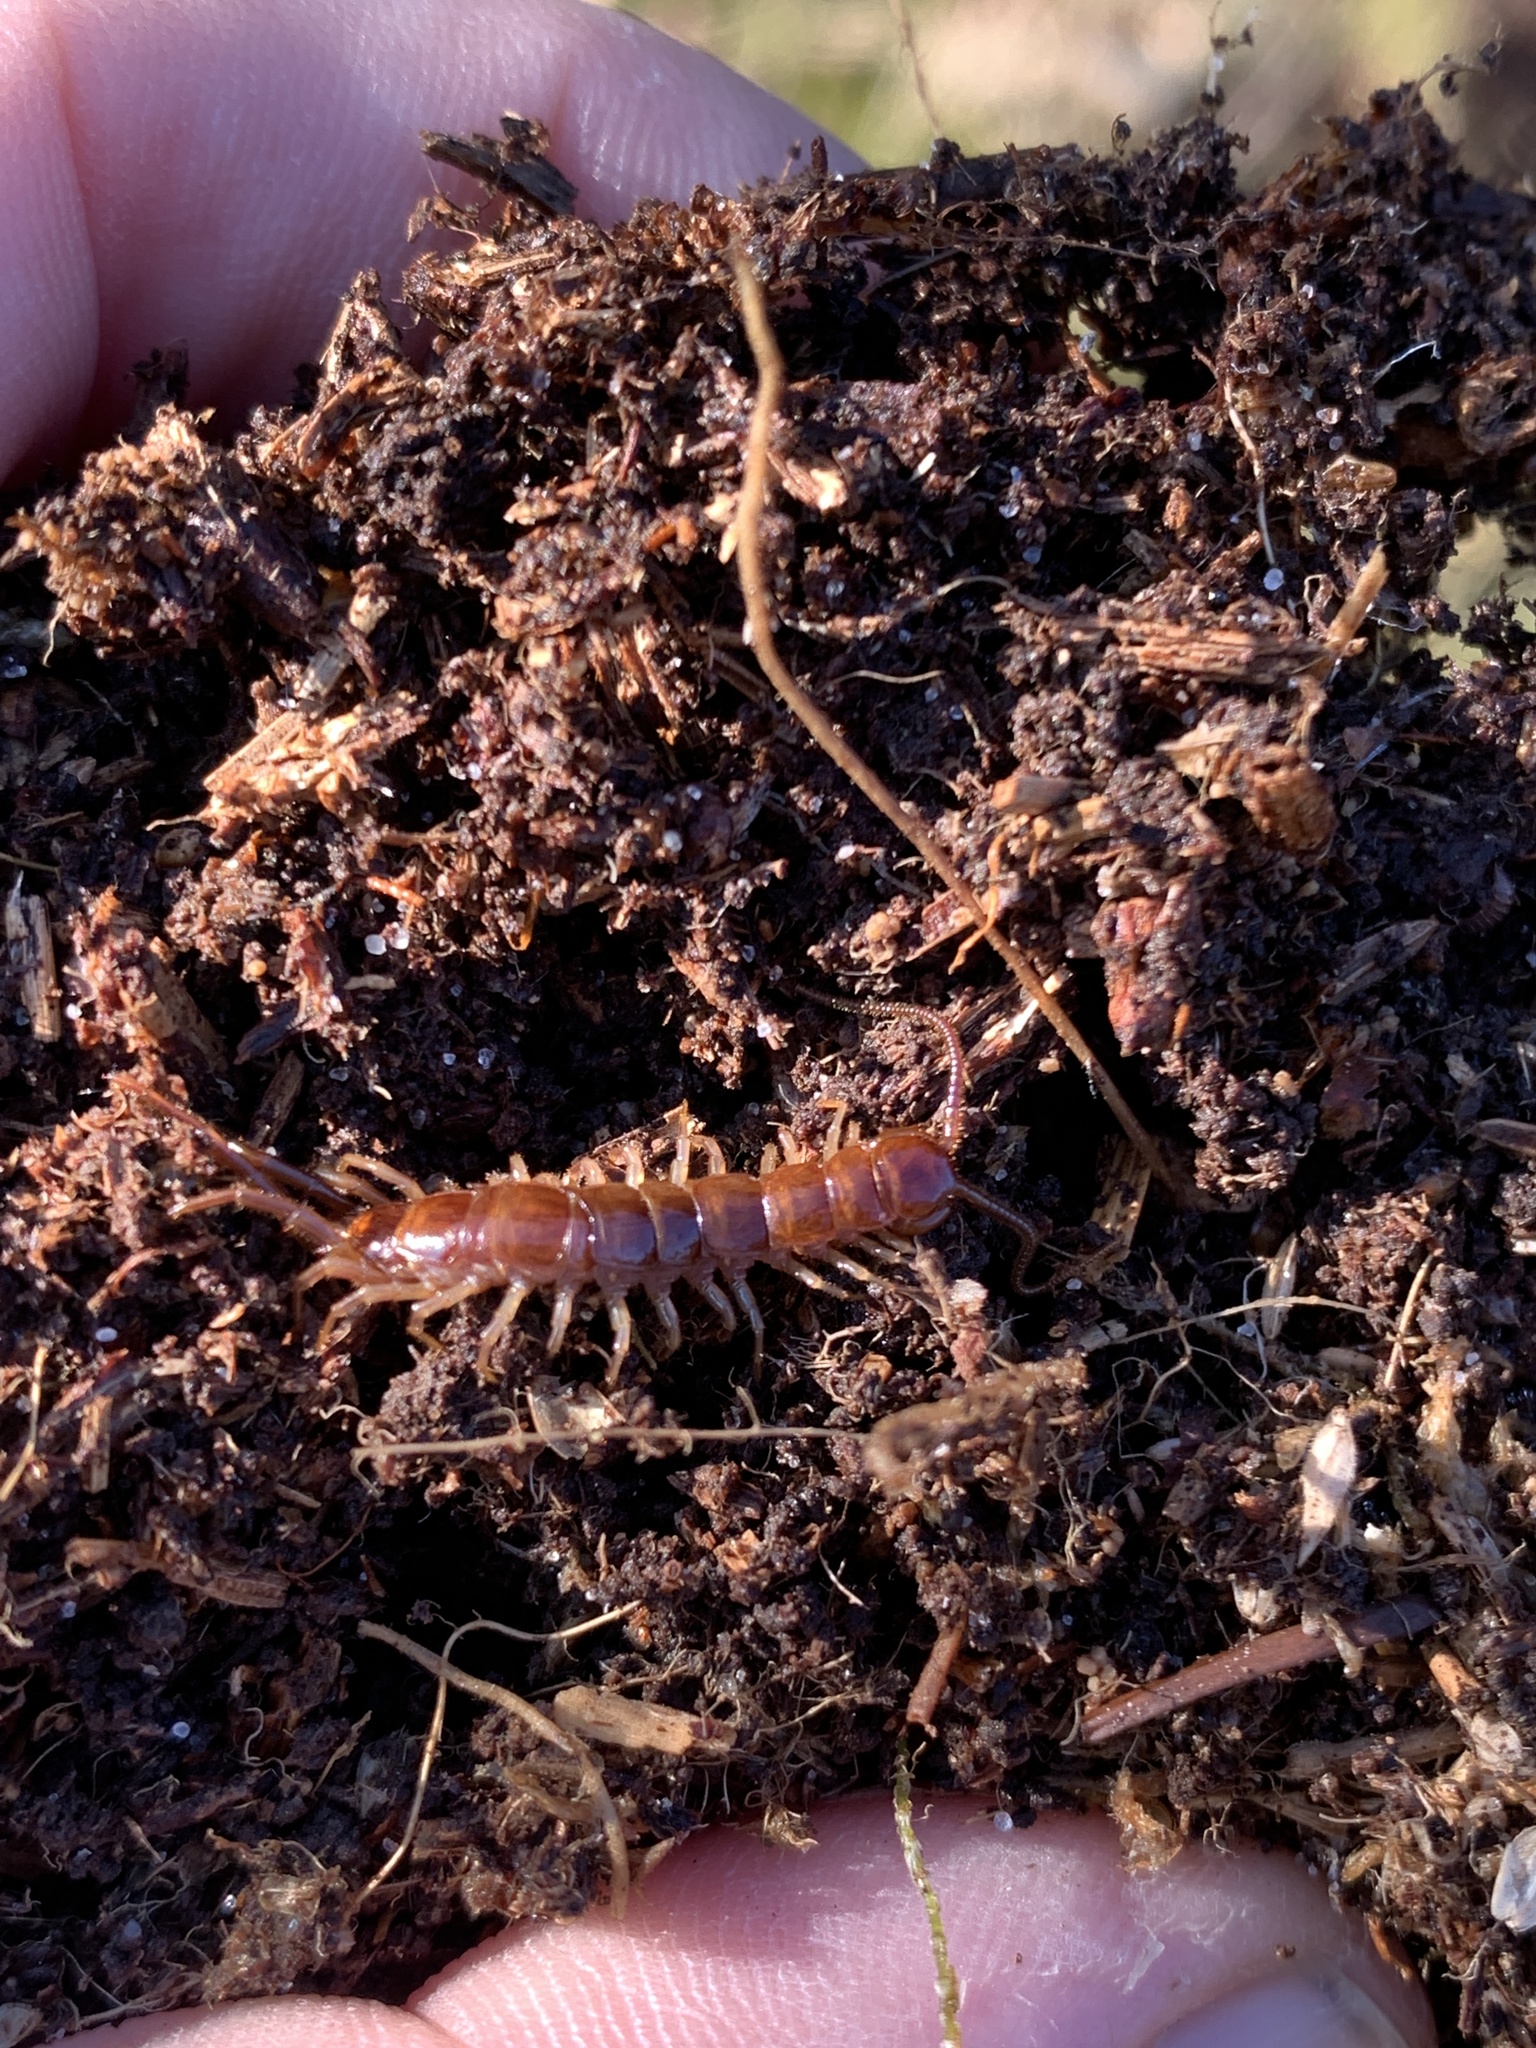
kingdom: Animalia
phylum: Arthropoda
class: Chilopoda
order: Lithobiomorpha
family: Lithobiidae
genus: Lithobius
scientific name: Lithobius forficatus
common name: Centipede
